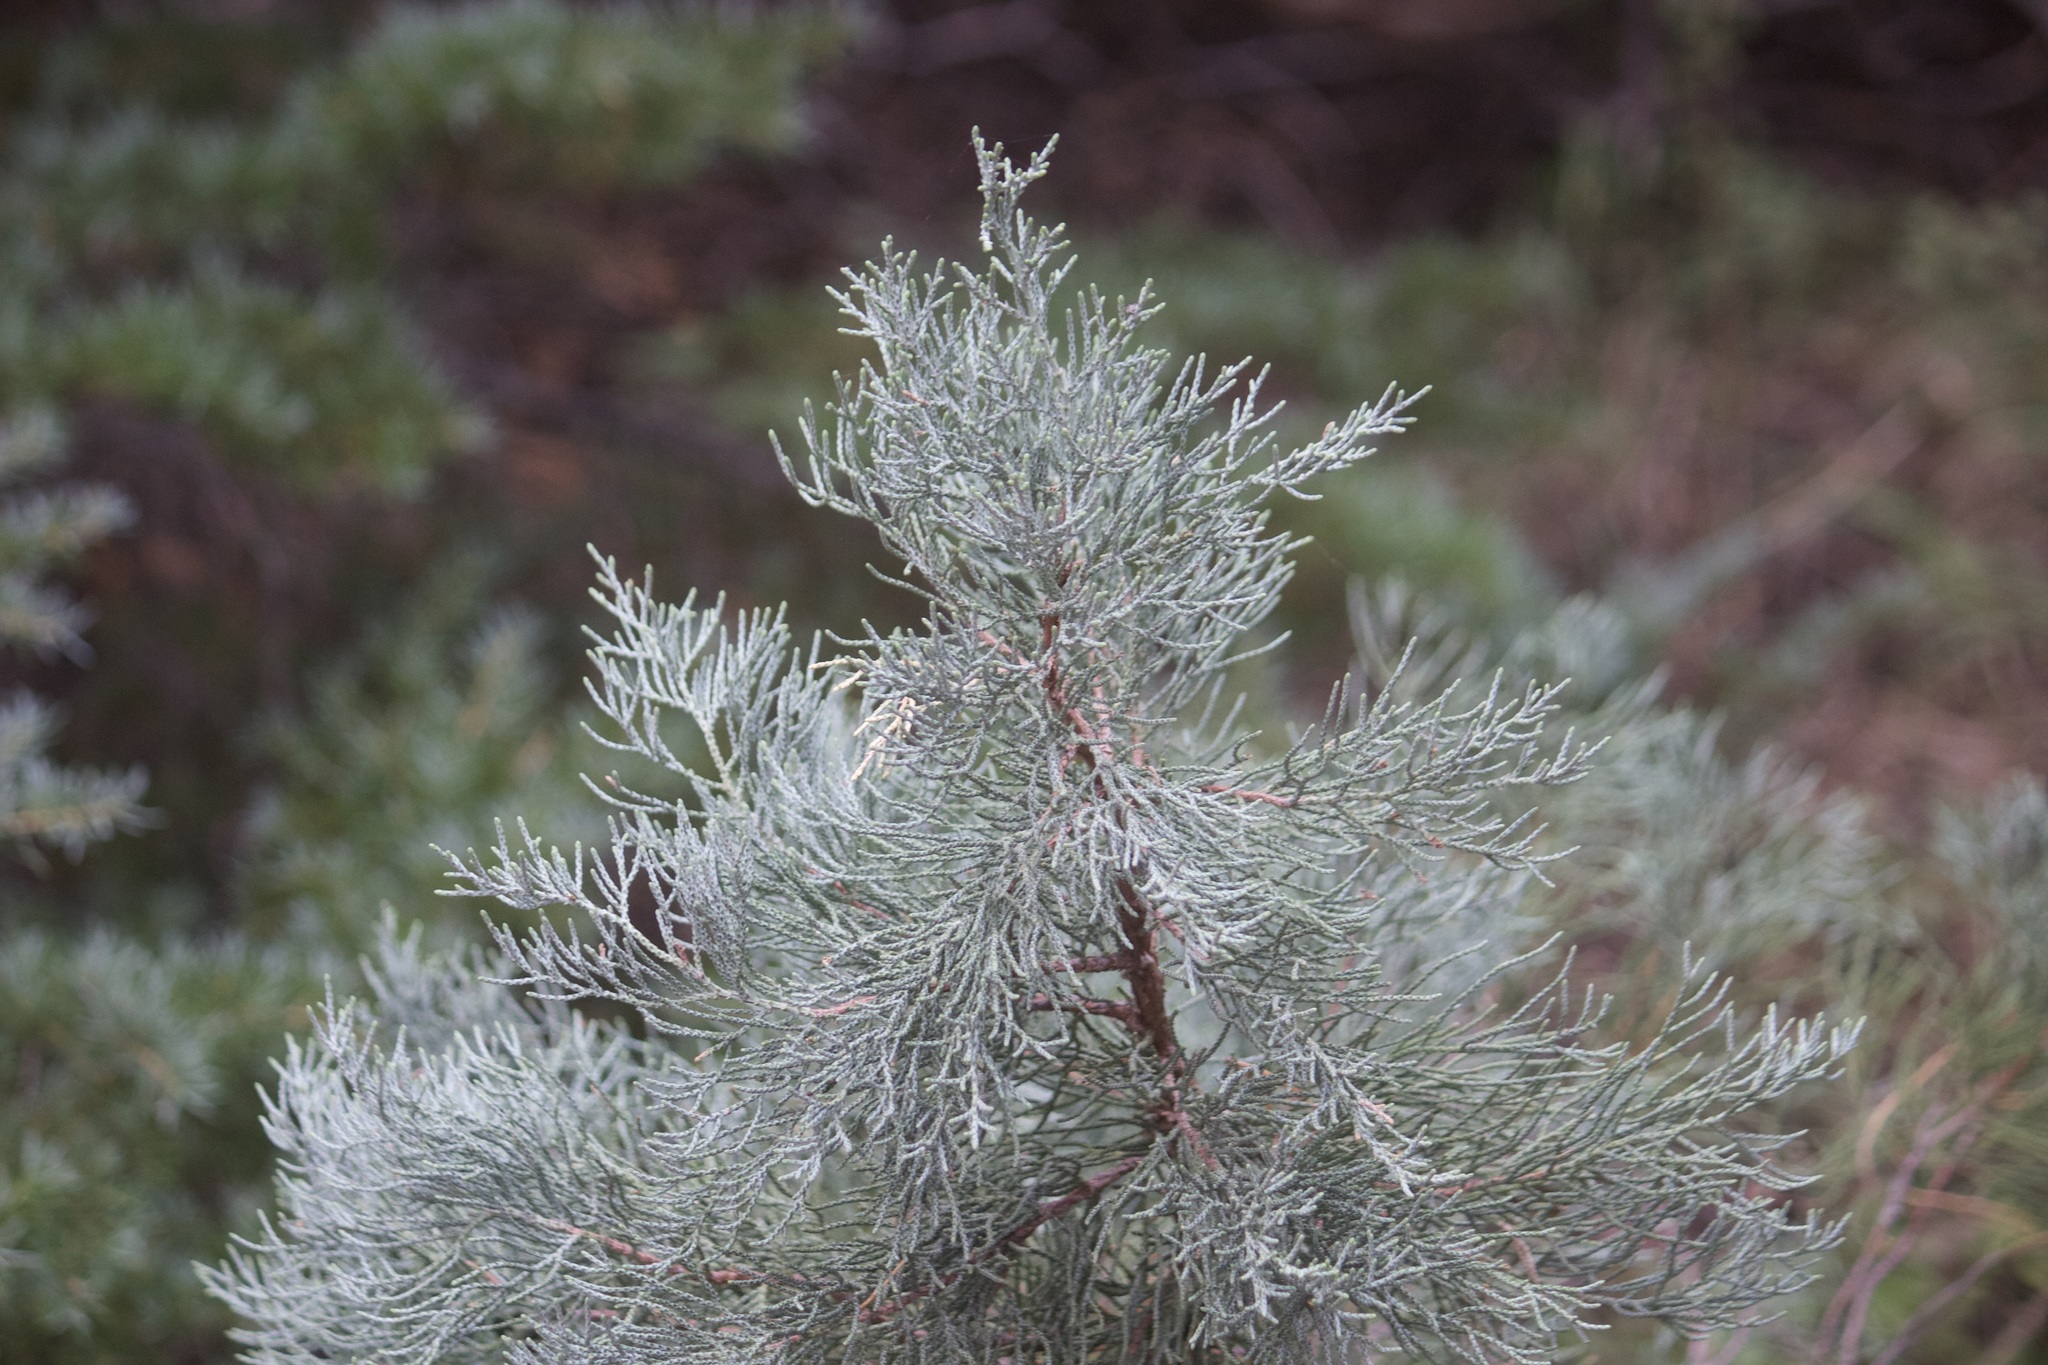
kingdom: Plantae
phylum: Tracheophyta
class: Pinopsida
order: Pinales
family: Cupressaceae
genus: Juniperus
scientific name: Juniperus occidentalis
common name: Western juniper
